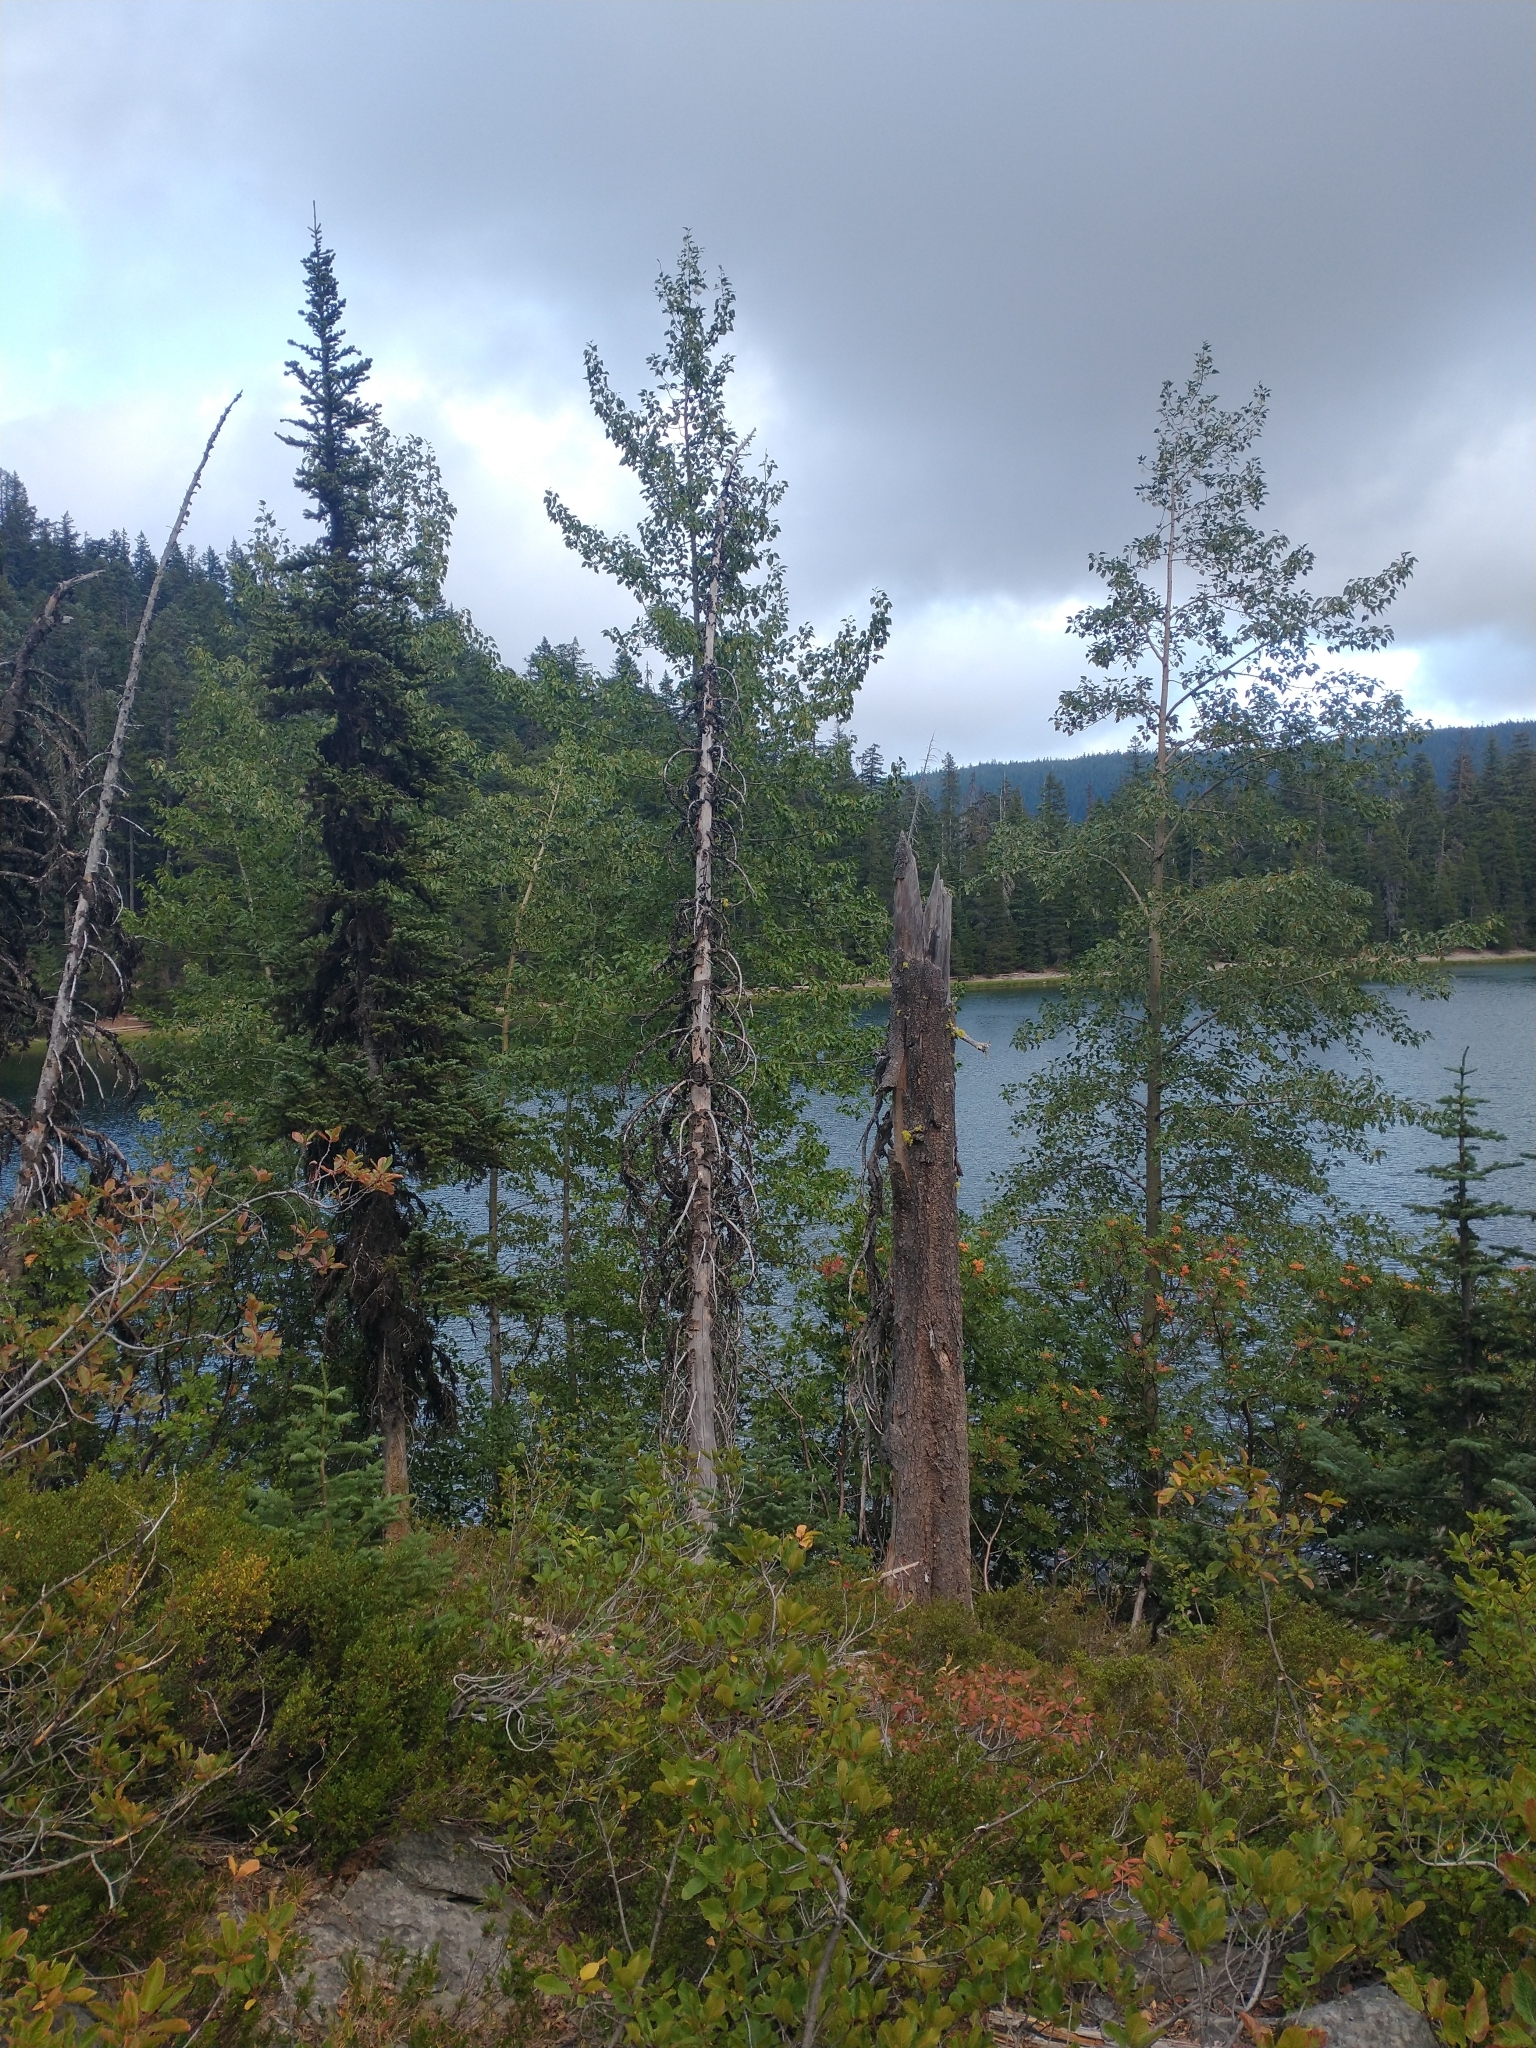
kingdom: Plantae
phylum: Tracheophyta
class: Magnoliopsida
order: Malpighiales
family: Salicaceae
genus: Populus
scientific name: Populus trichocarpa
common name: Black cottonwood
